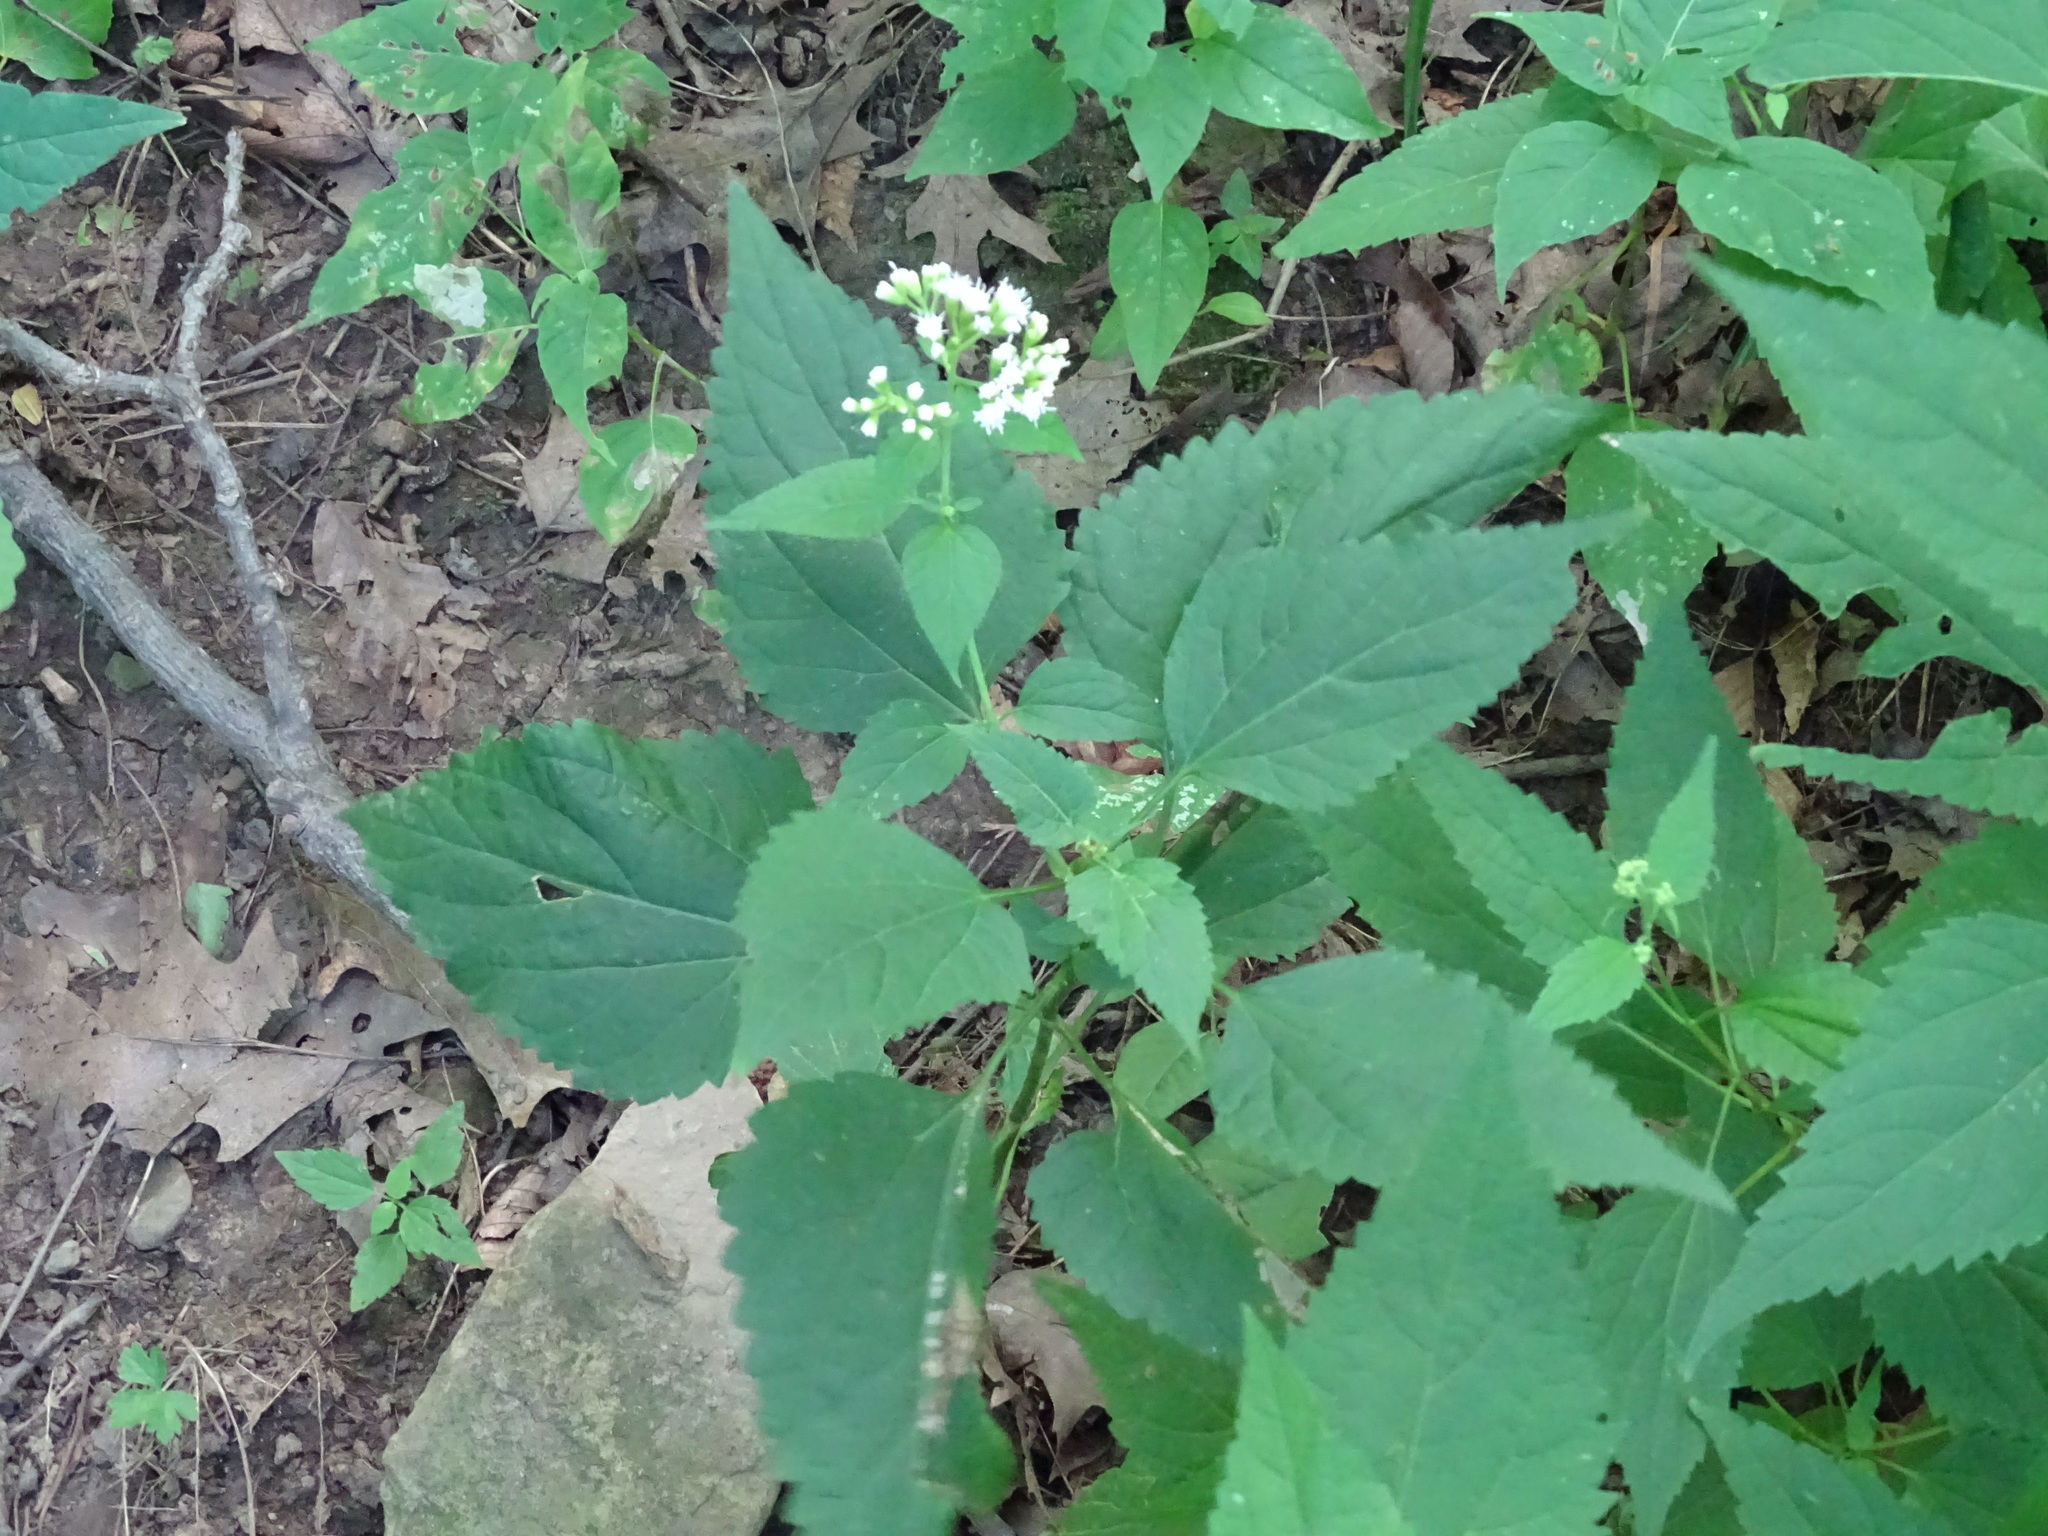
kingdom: Plantae
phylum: Tracheophyta
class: Magnoliopsida
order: Asterales
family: Asteraceae
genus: Ageratina
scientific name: Ageratina altissima
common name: White snakeroot
